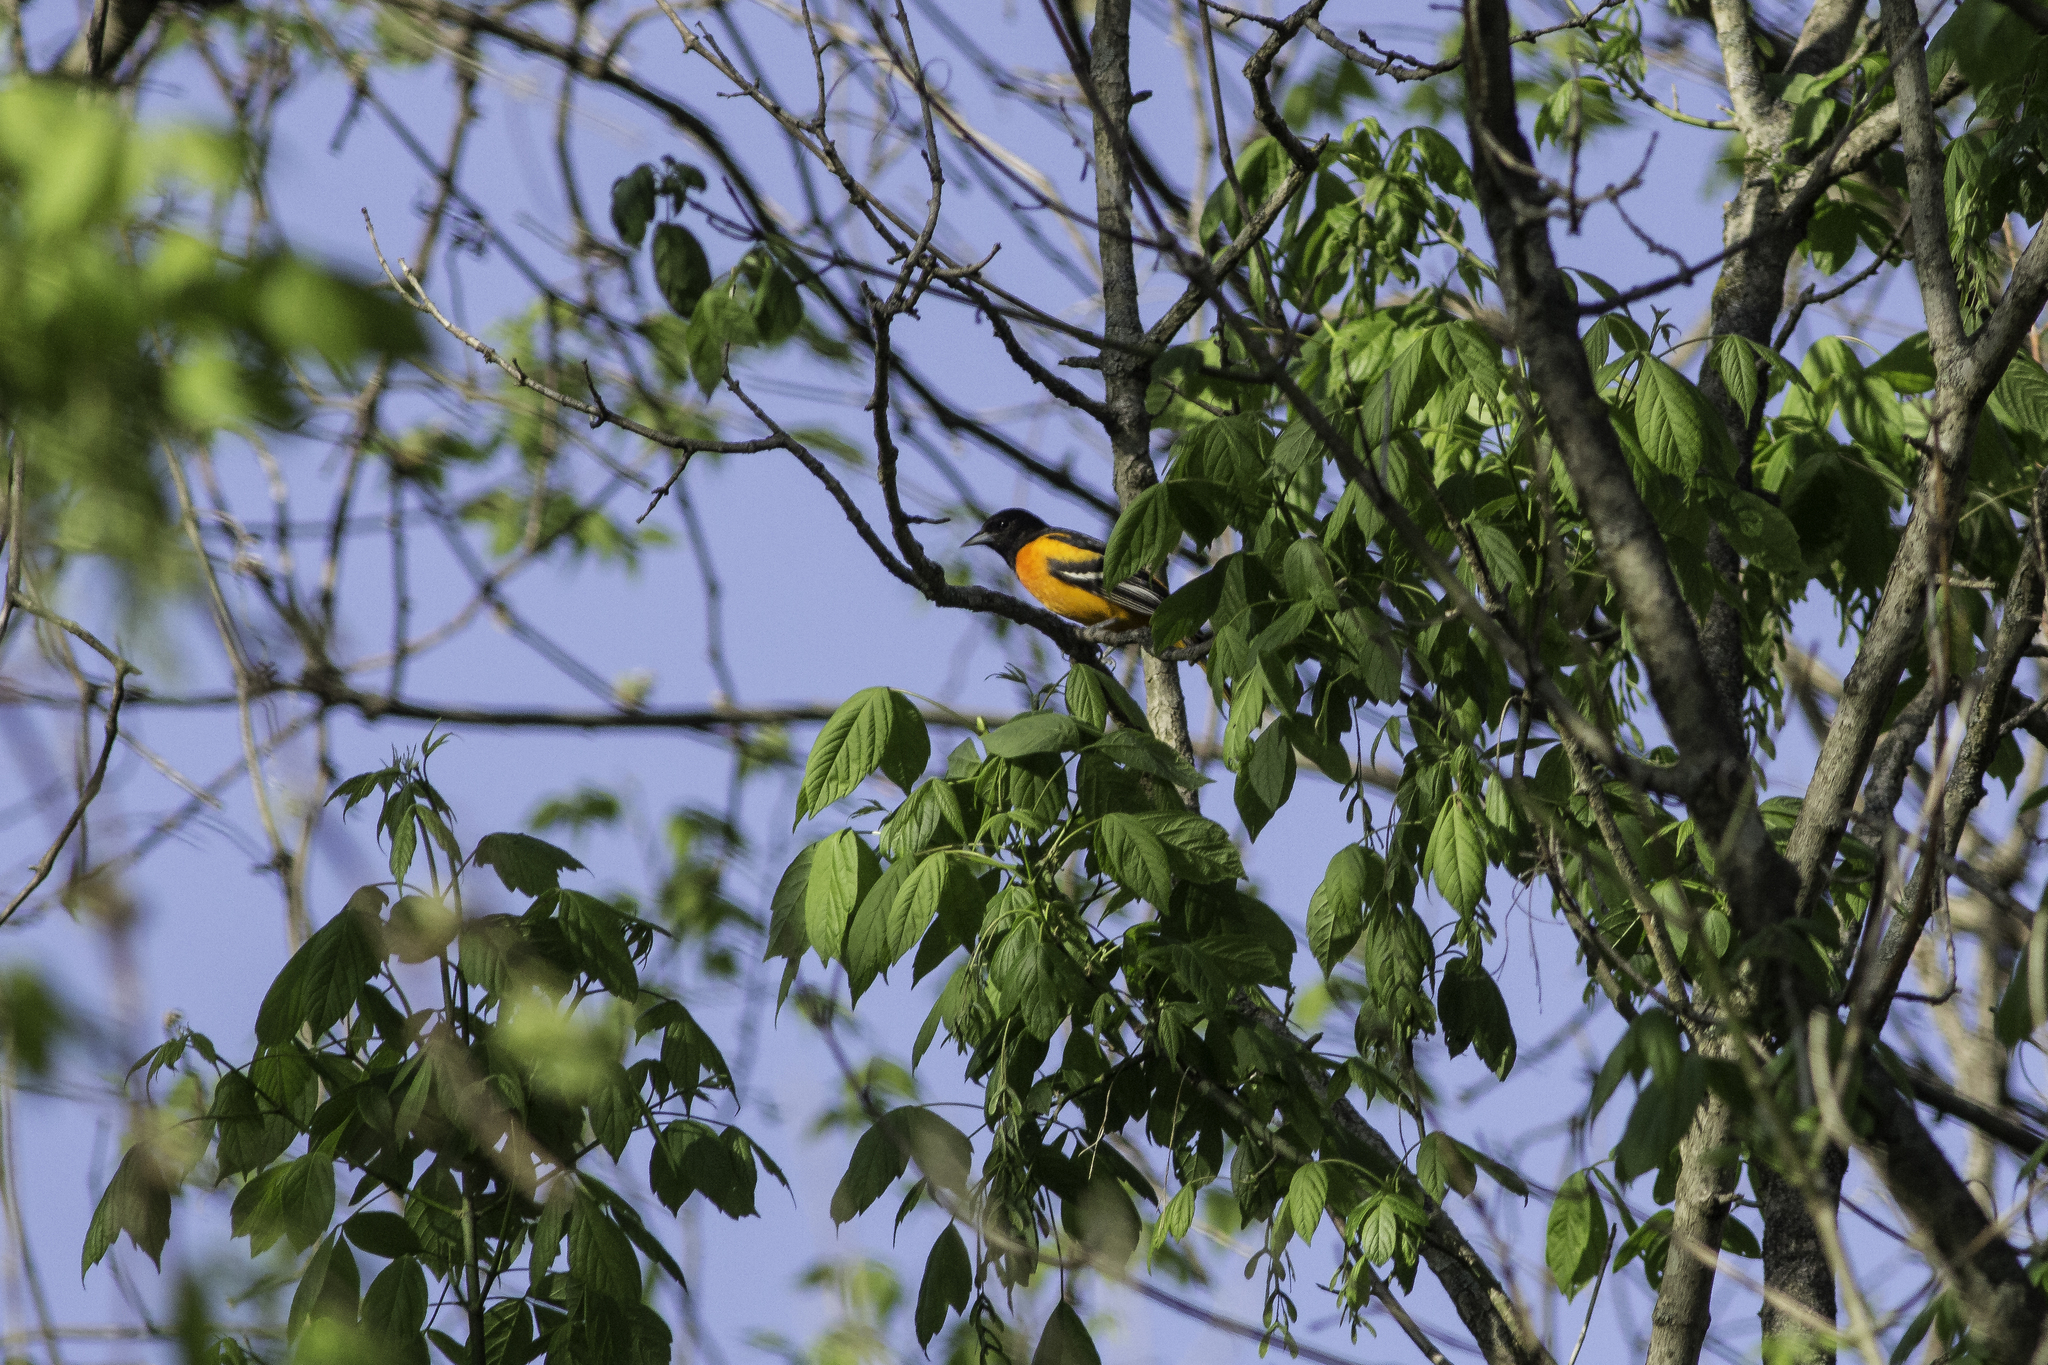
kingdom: Animalia
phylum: Chordata
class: Aves
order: Passeriformes
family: Icteridae
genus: Icterus
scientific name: Icterus galbula
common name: Baltimore oriole
